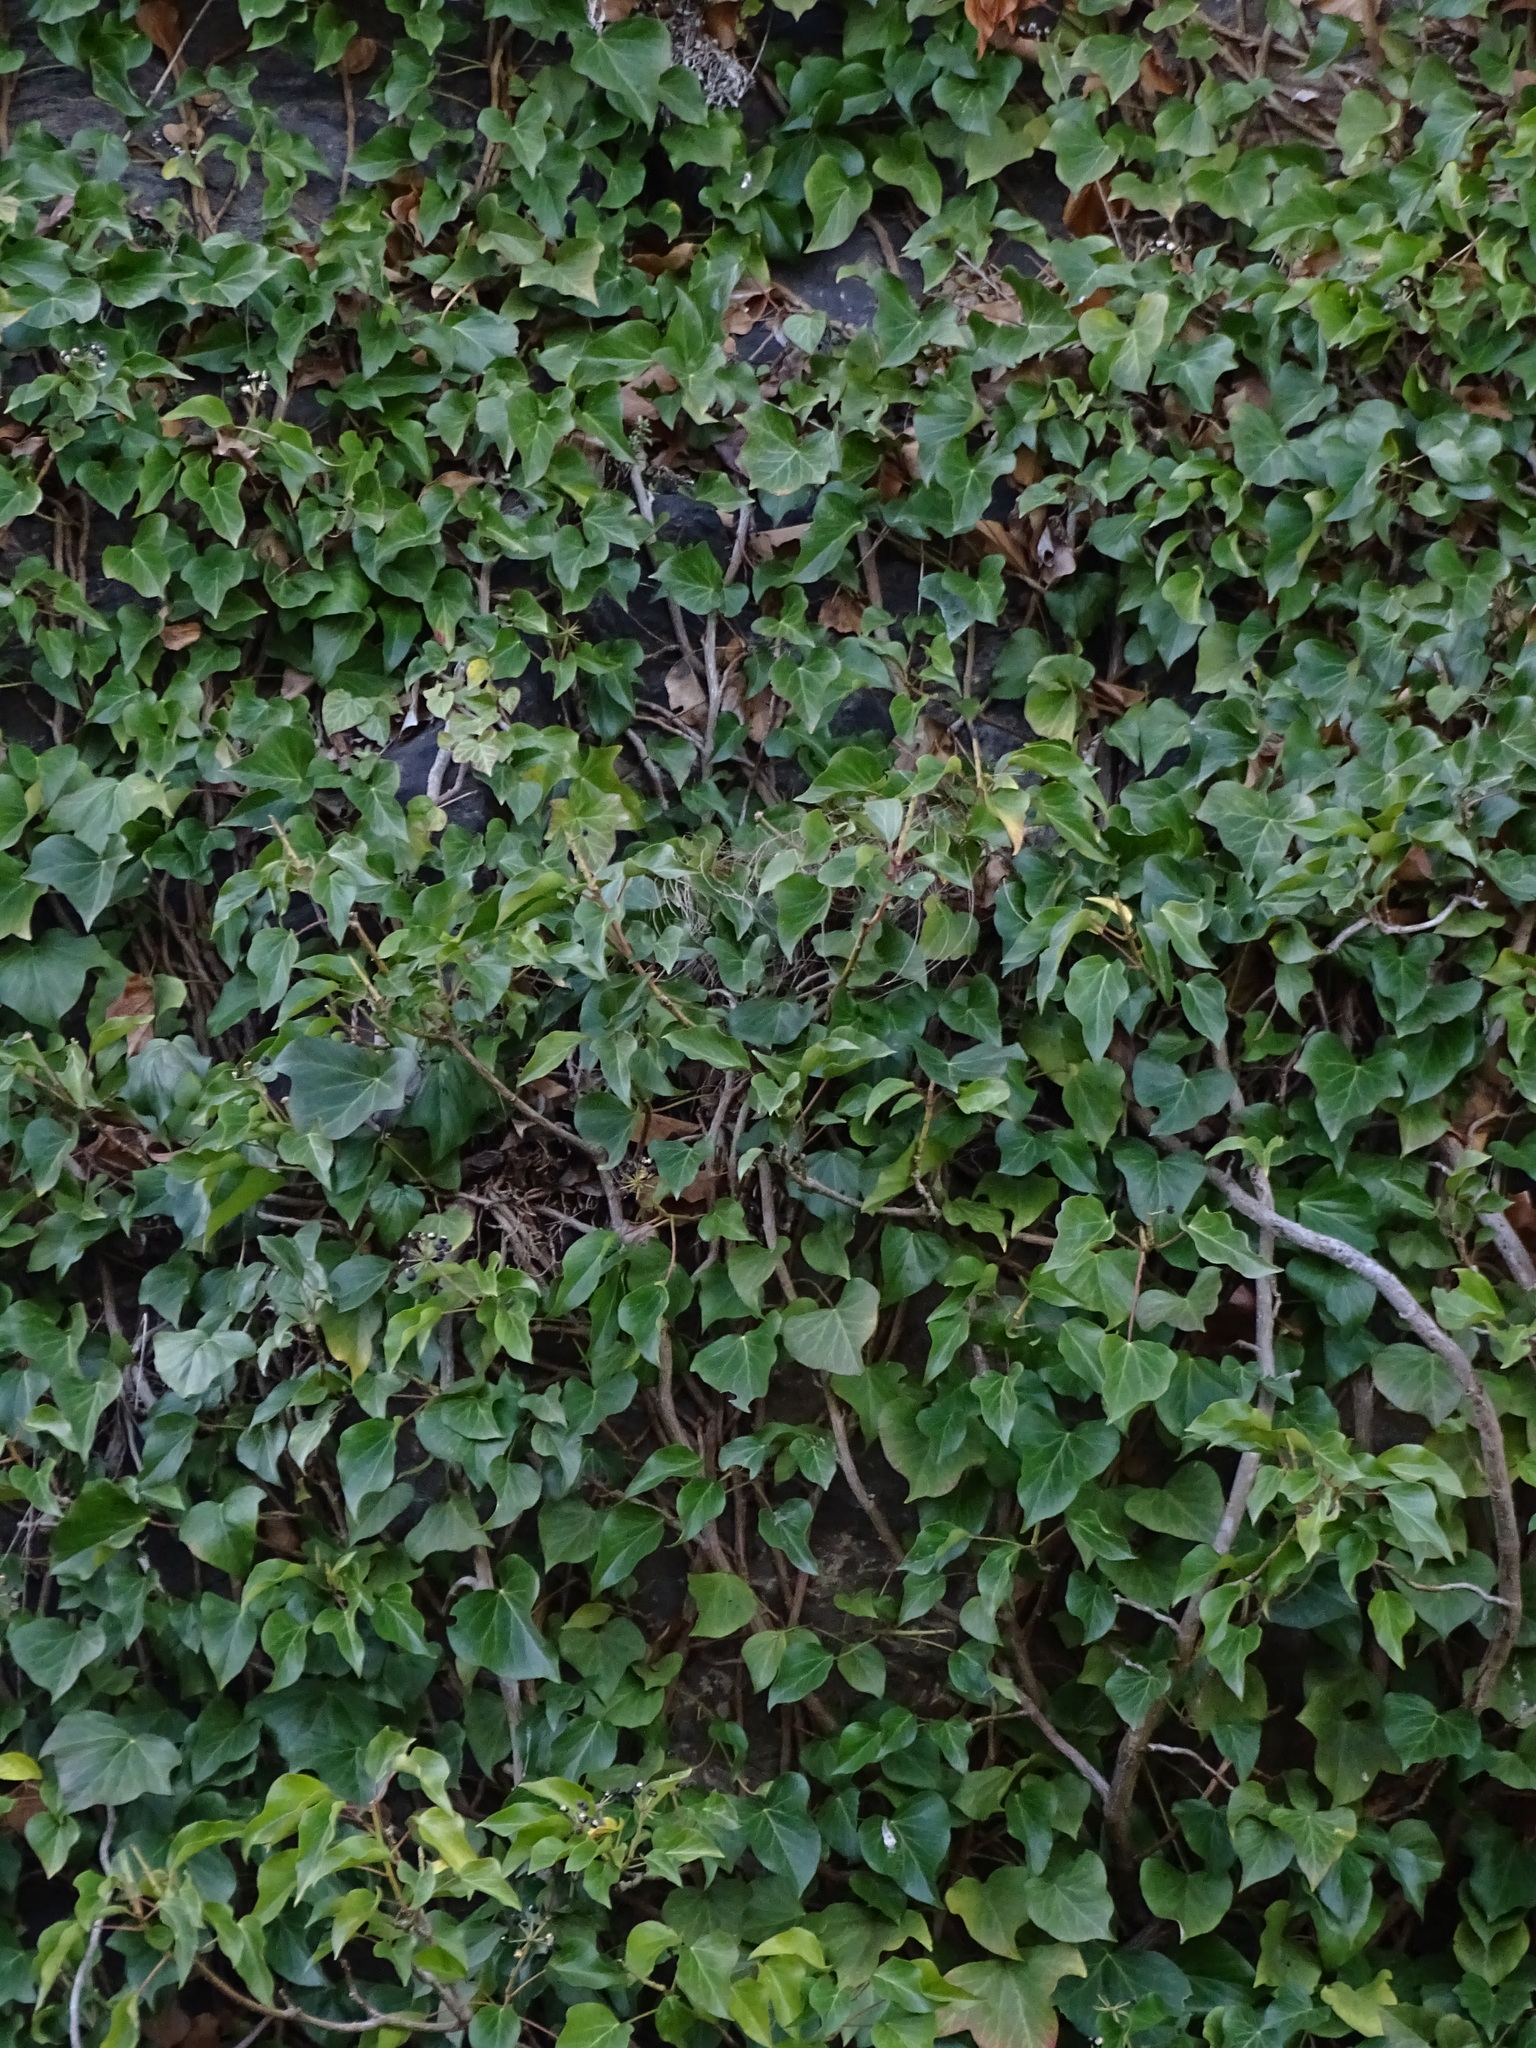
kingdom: Plantae
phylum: Tracheophyta
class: Magnoliopsida
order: Apiales
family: Araliaceae
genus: Hedera
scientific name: Hedera helix
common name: Ivy
